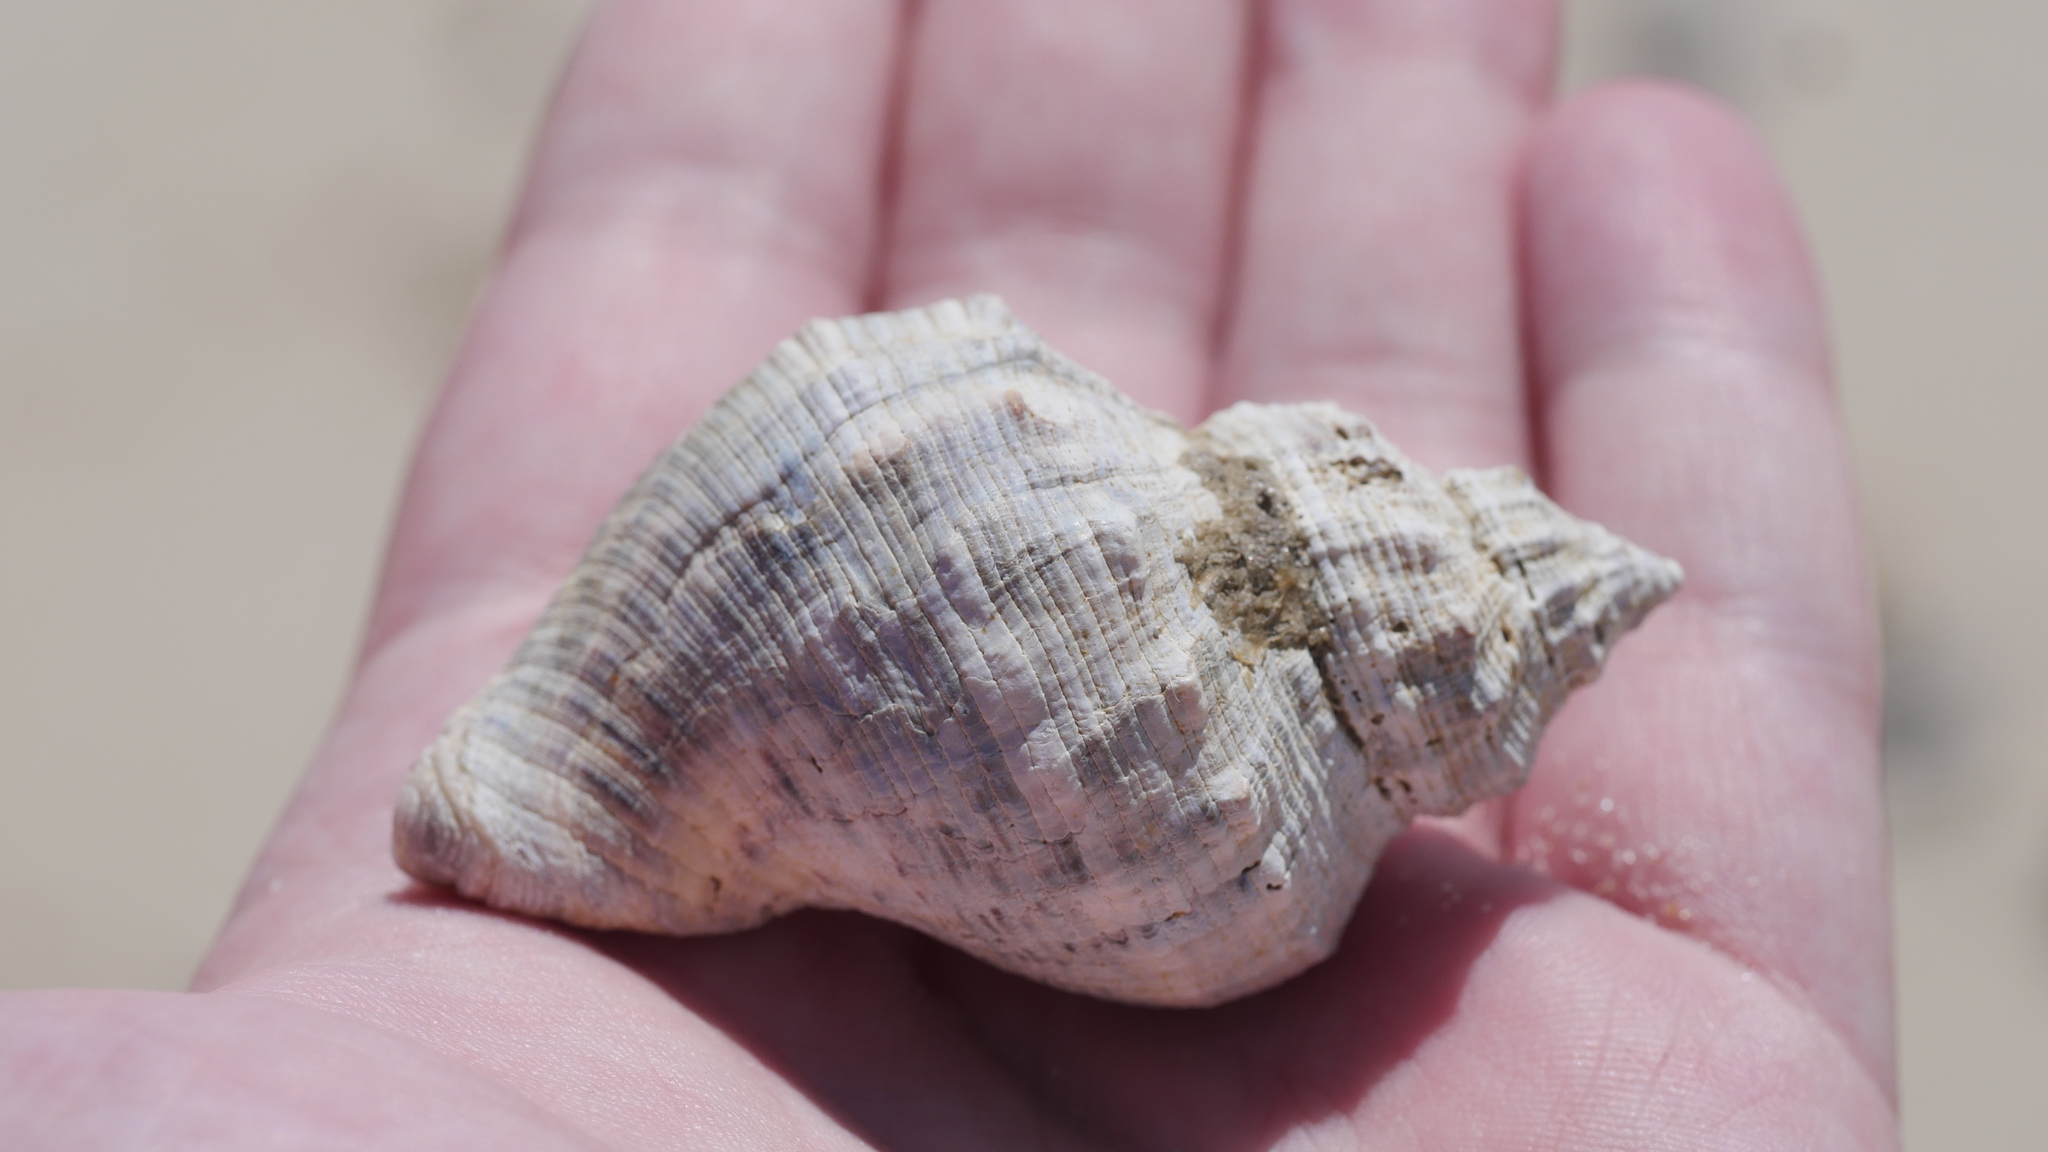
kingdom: Animalia
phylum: Mollusca
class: Gastropoda
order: Neogastropoda
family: Muricidae
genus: Stramonita
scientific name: Stramonita canaliculata
